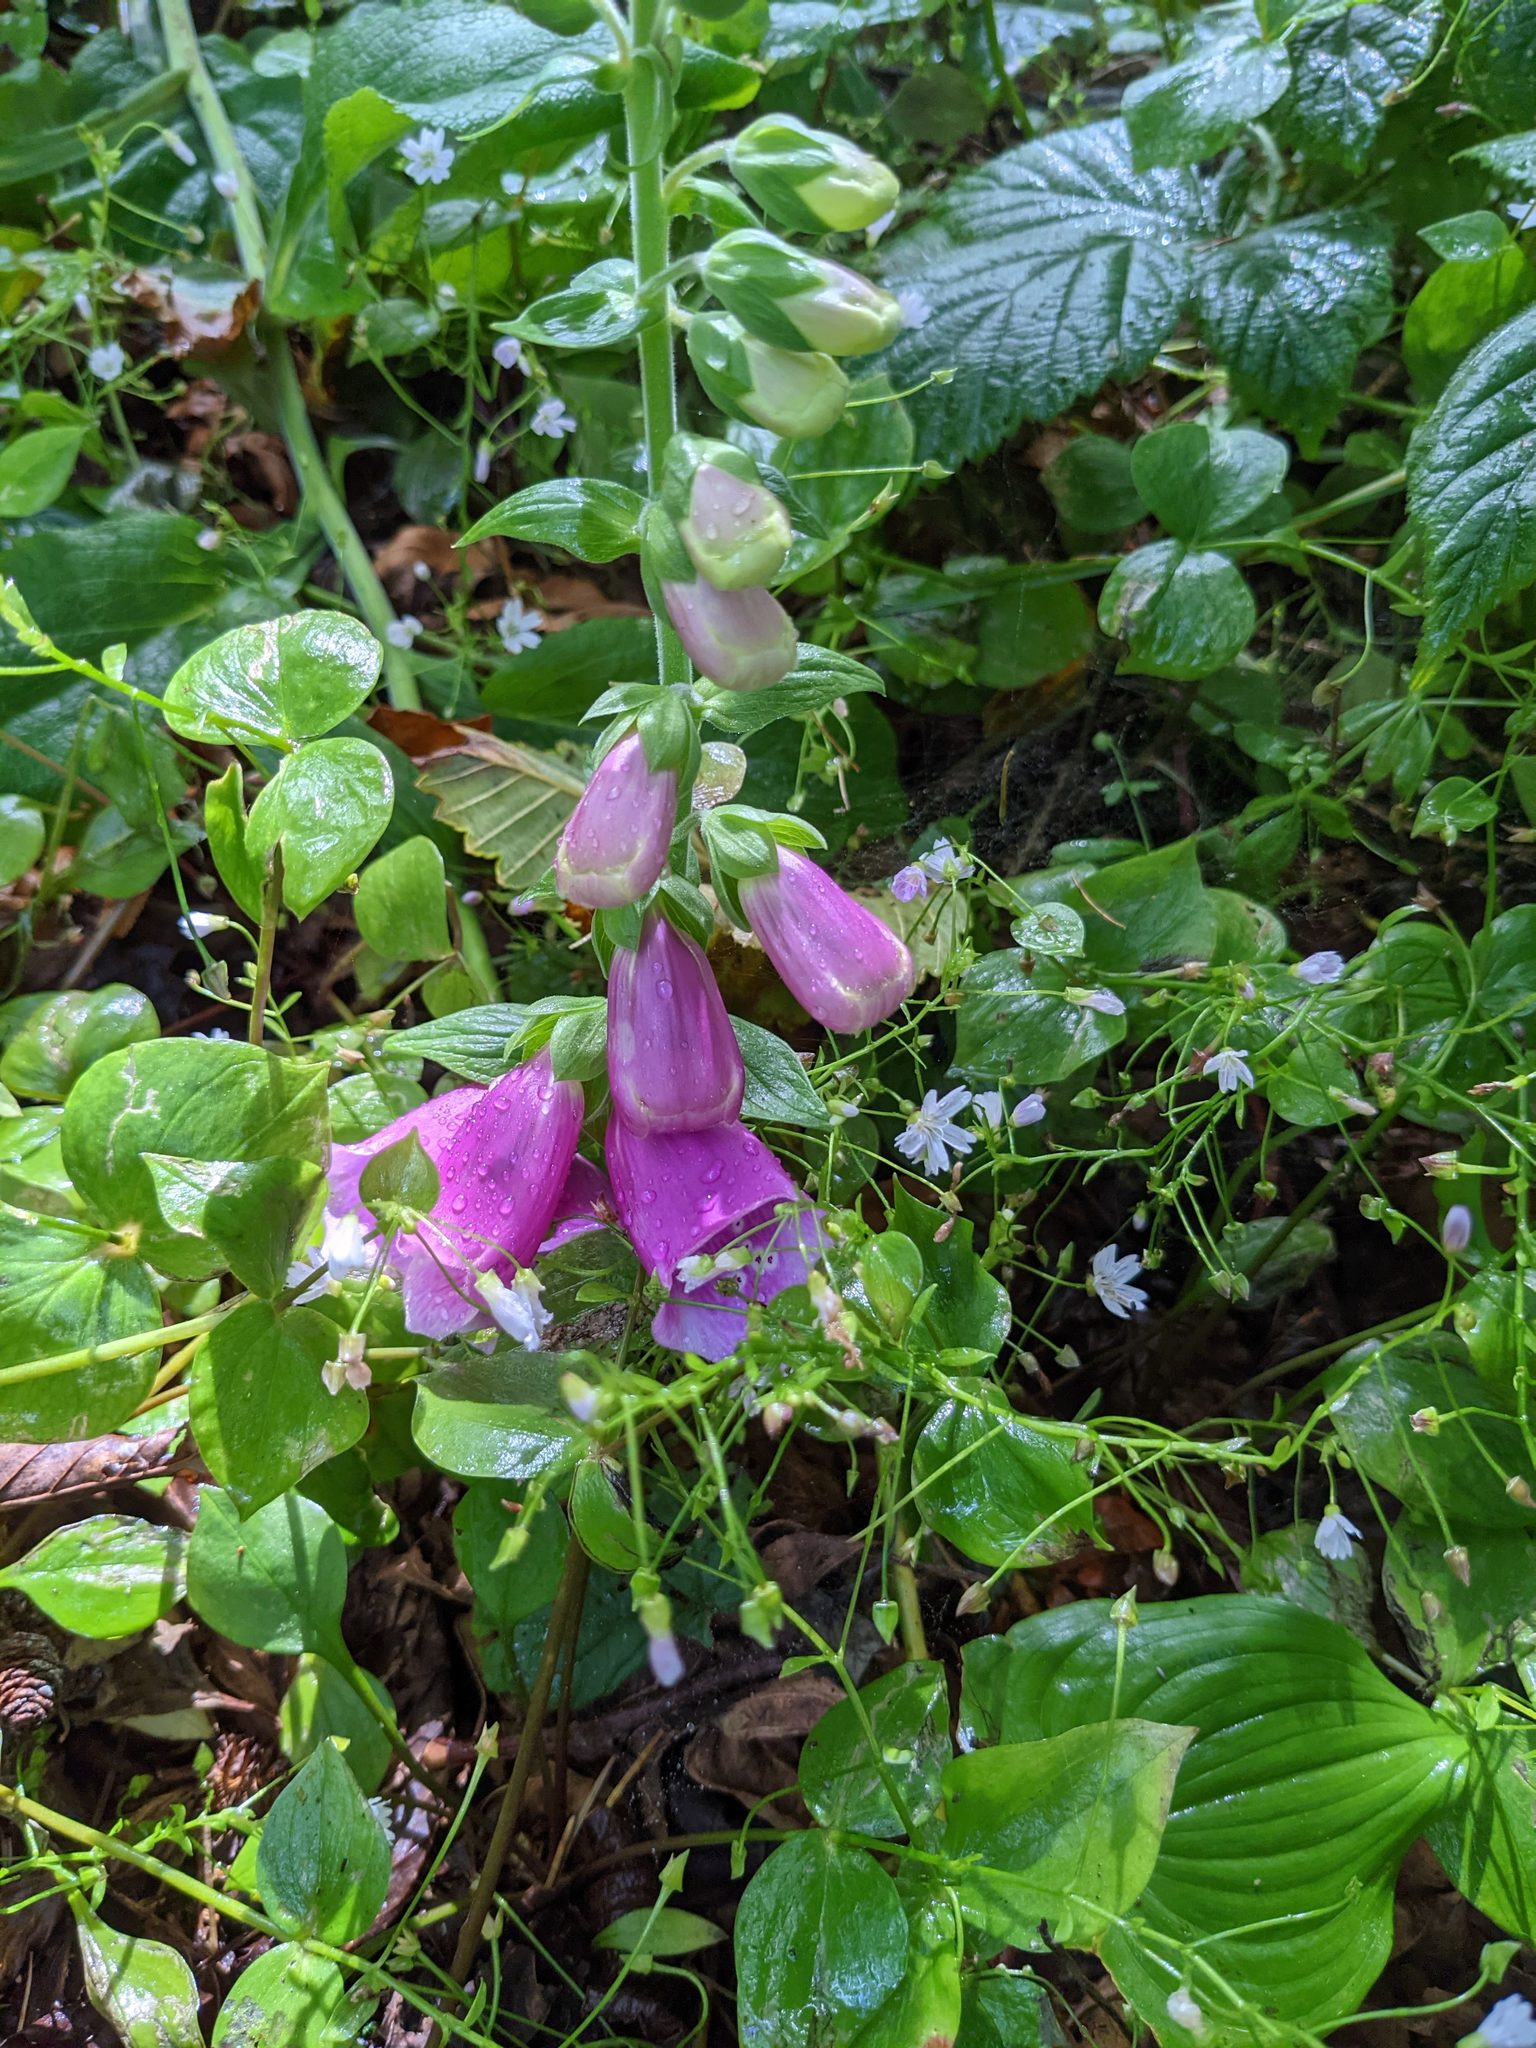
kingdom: Plantae
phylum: Tracheophyta
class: Magnoliopsida
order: Lamiales
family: Plantaginaceae
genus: Digitalis
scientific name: Digitalis purpurea
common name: Foxglove
